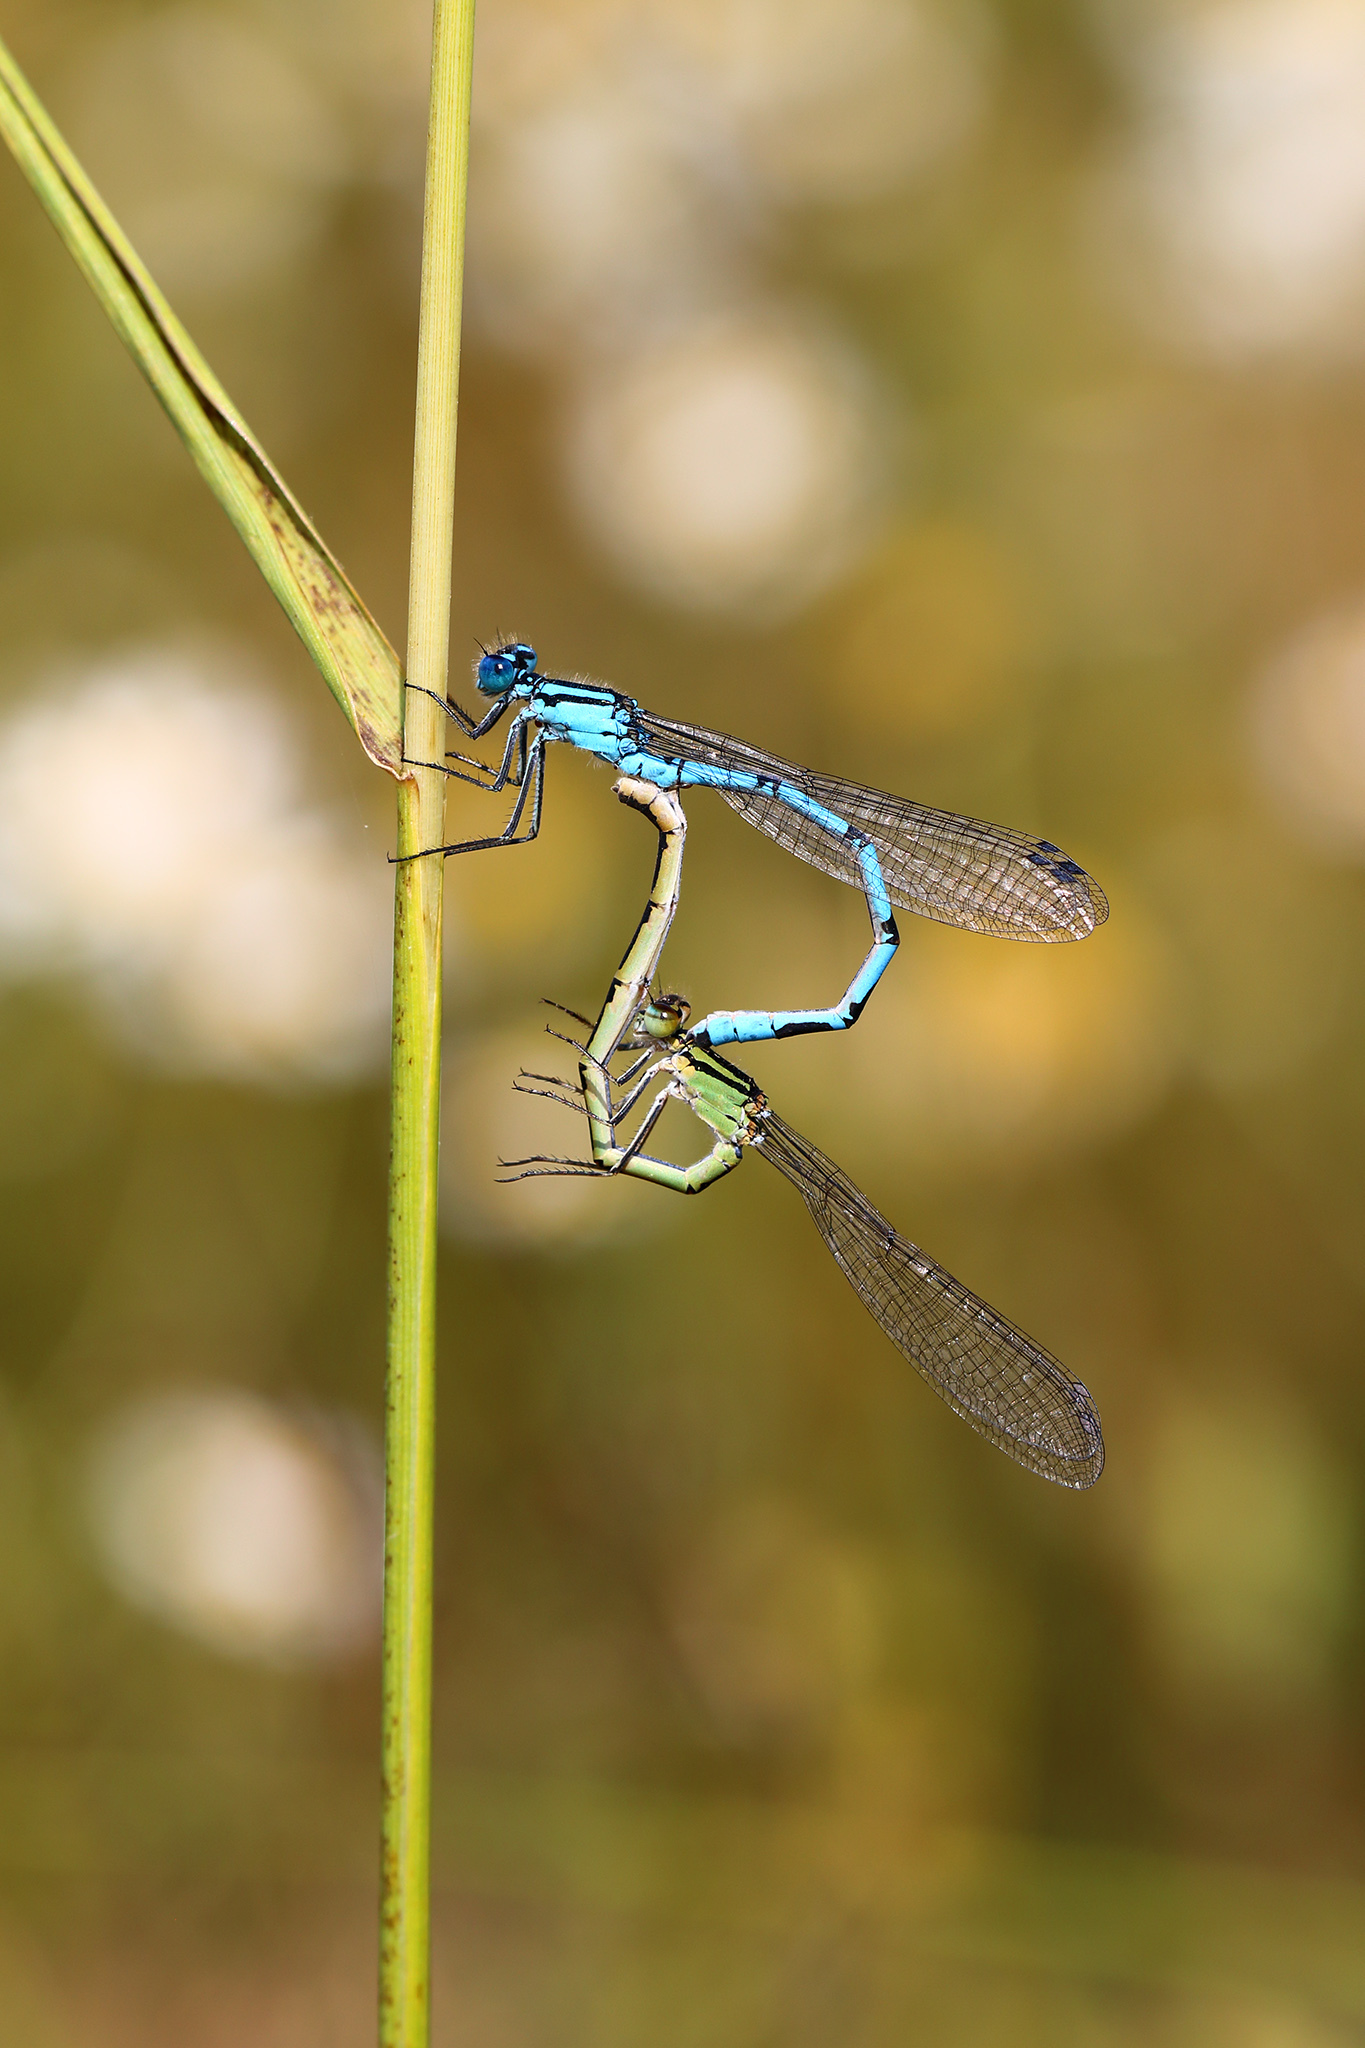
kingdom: Animalia
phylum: Arthropoda
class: Insecta
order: Odonata
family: Coenagrionidae
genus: Enallagma
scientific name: Enallagma cyathigerum
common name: Common blue damselfly
